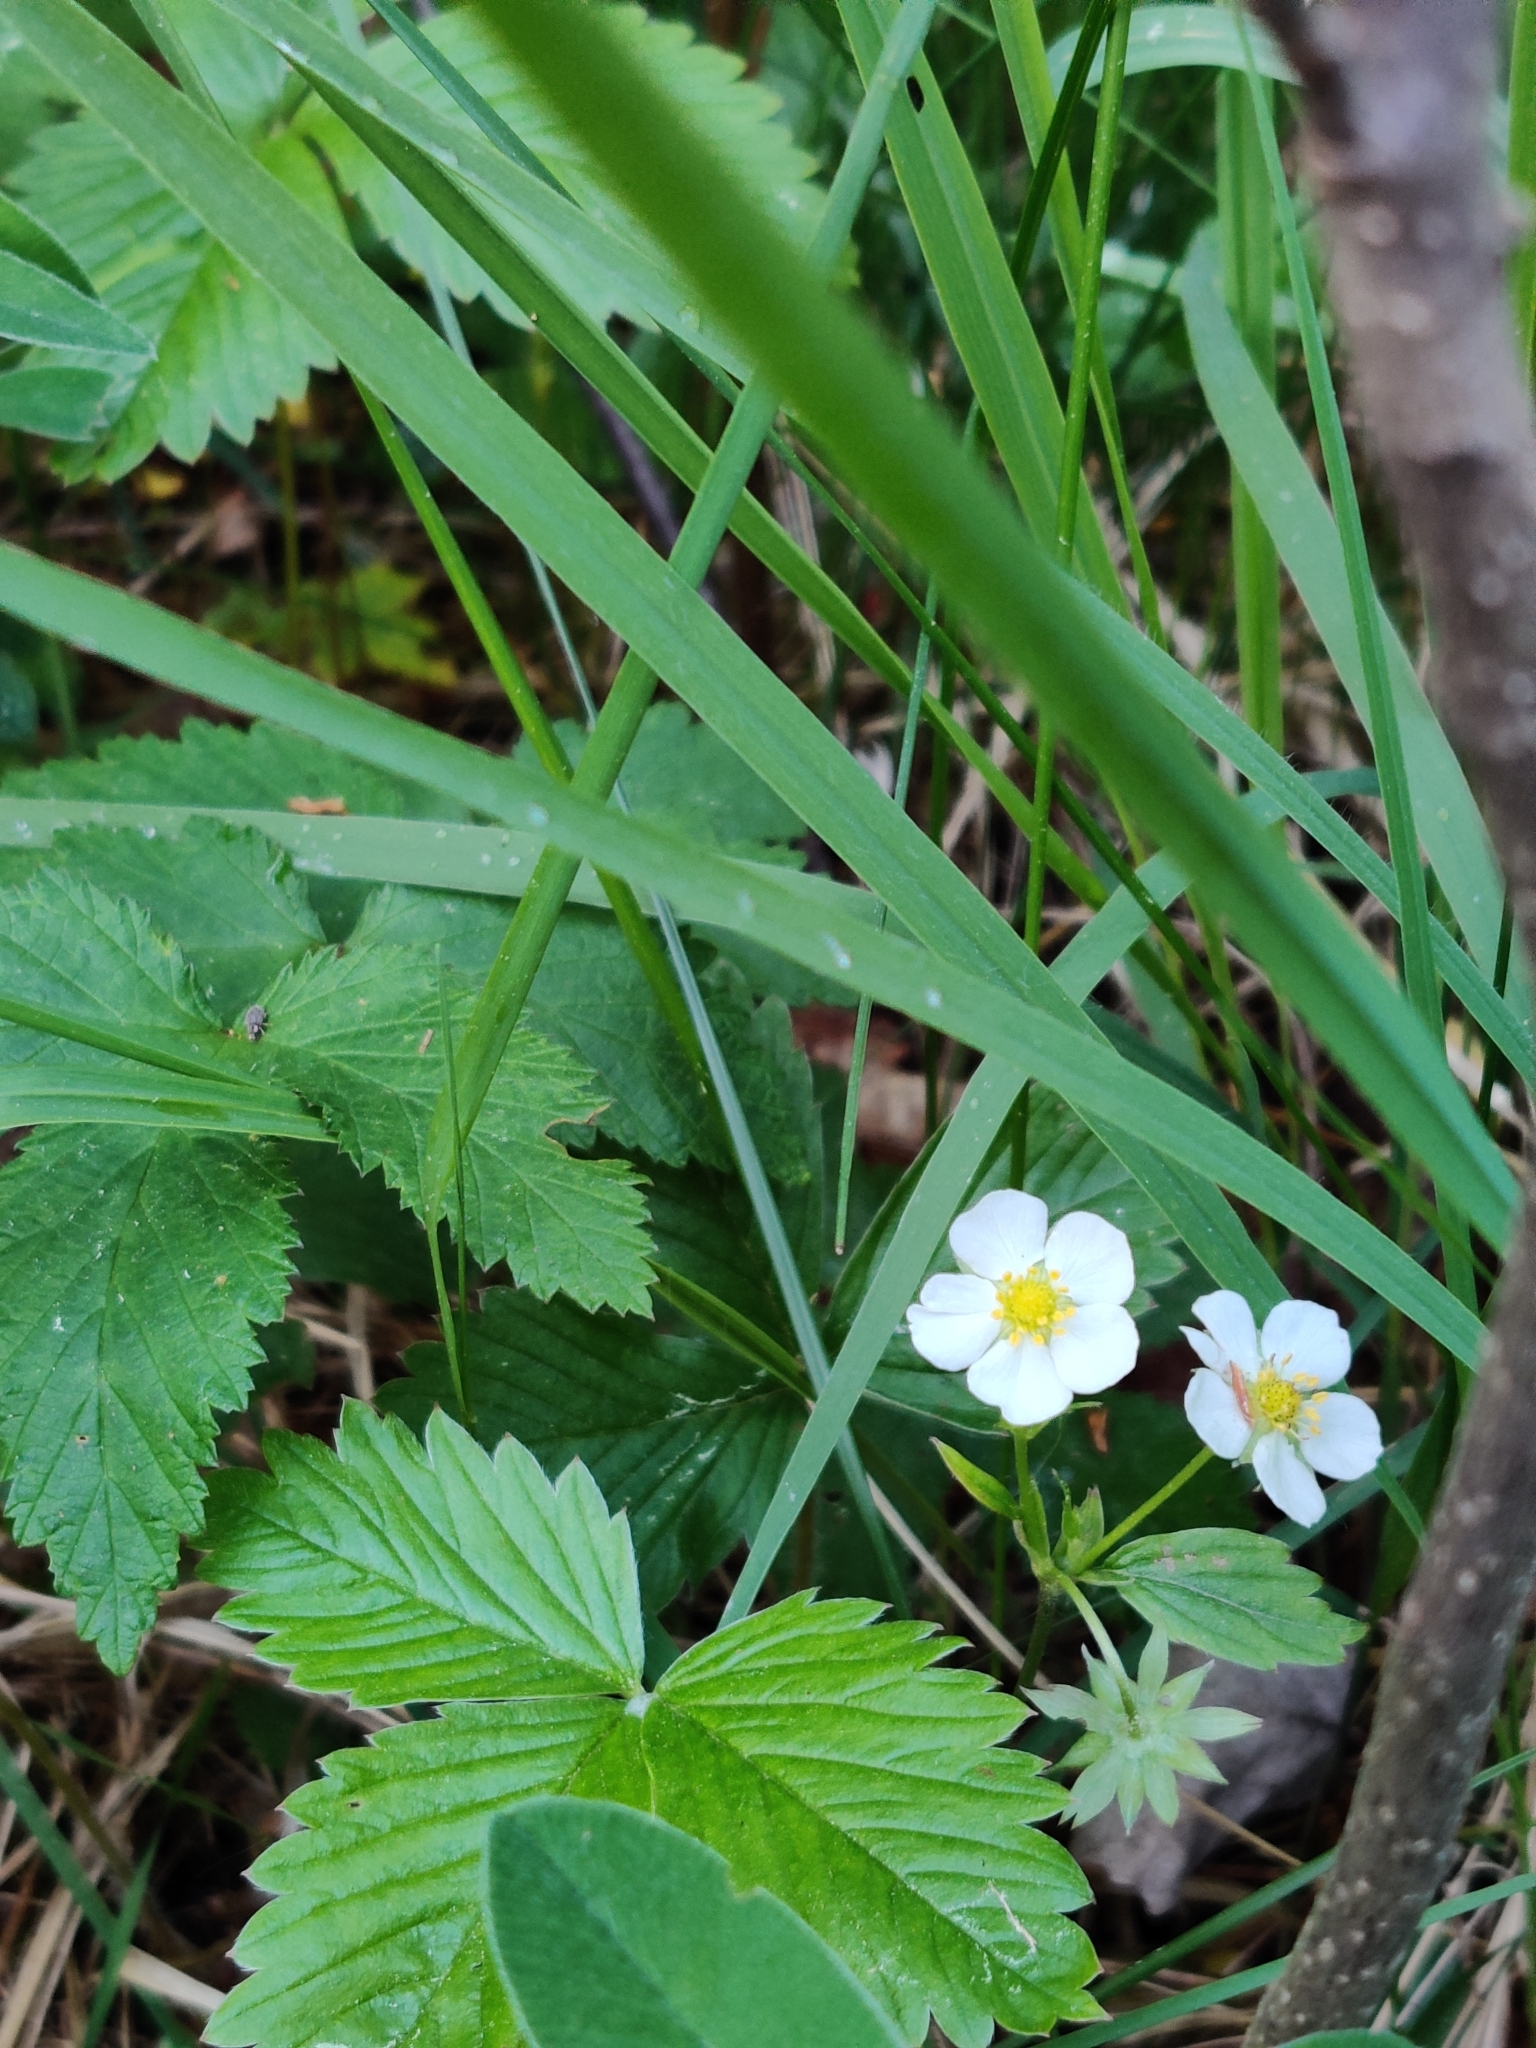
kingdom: Plantae
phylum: Tracheophyta
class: Magnoliopsida
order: Rosales
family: Rosaceae
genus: Fragaria
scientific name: Fragaria vesca
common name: Wild strawberry
